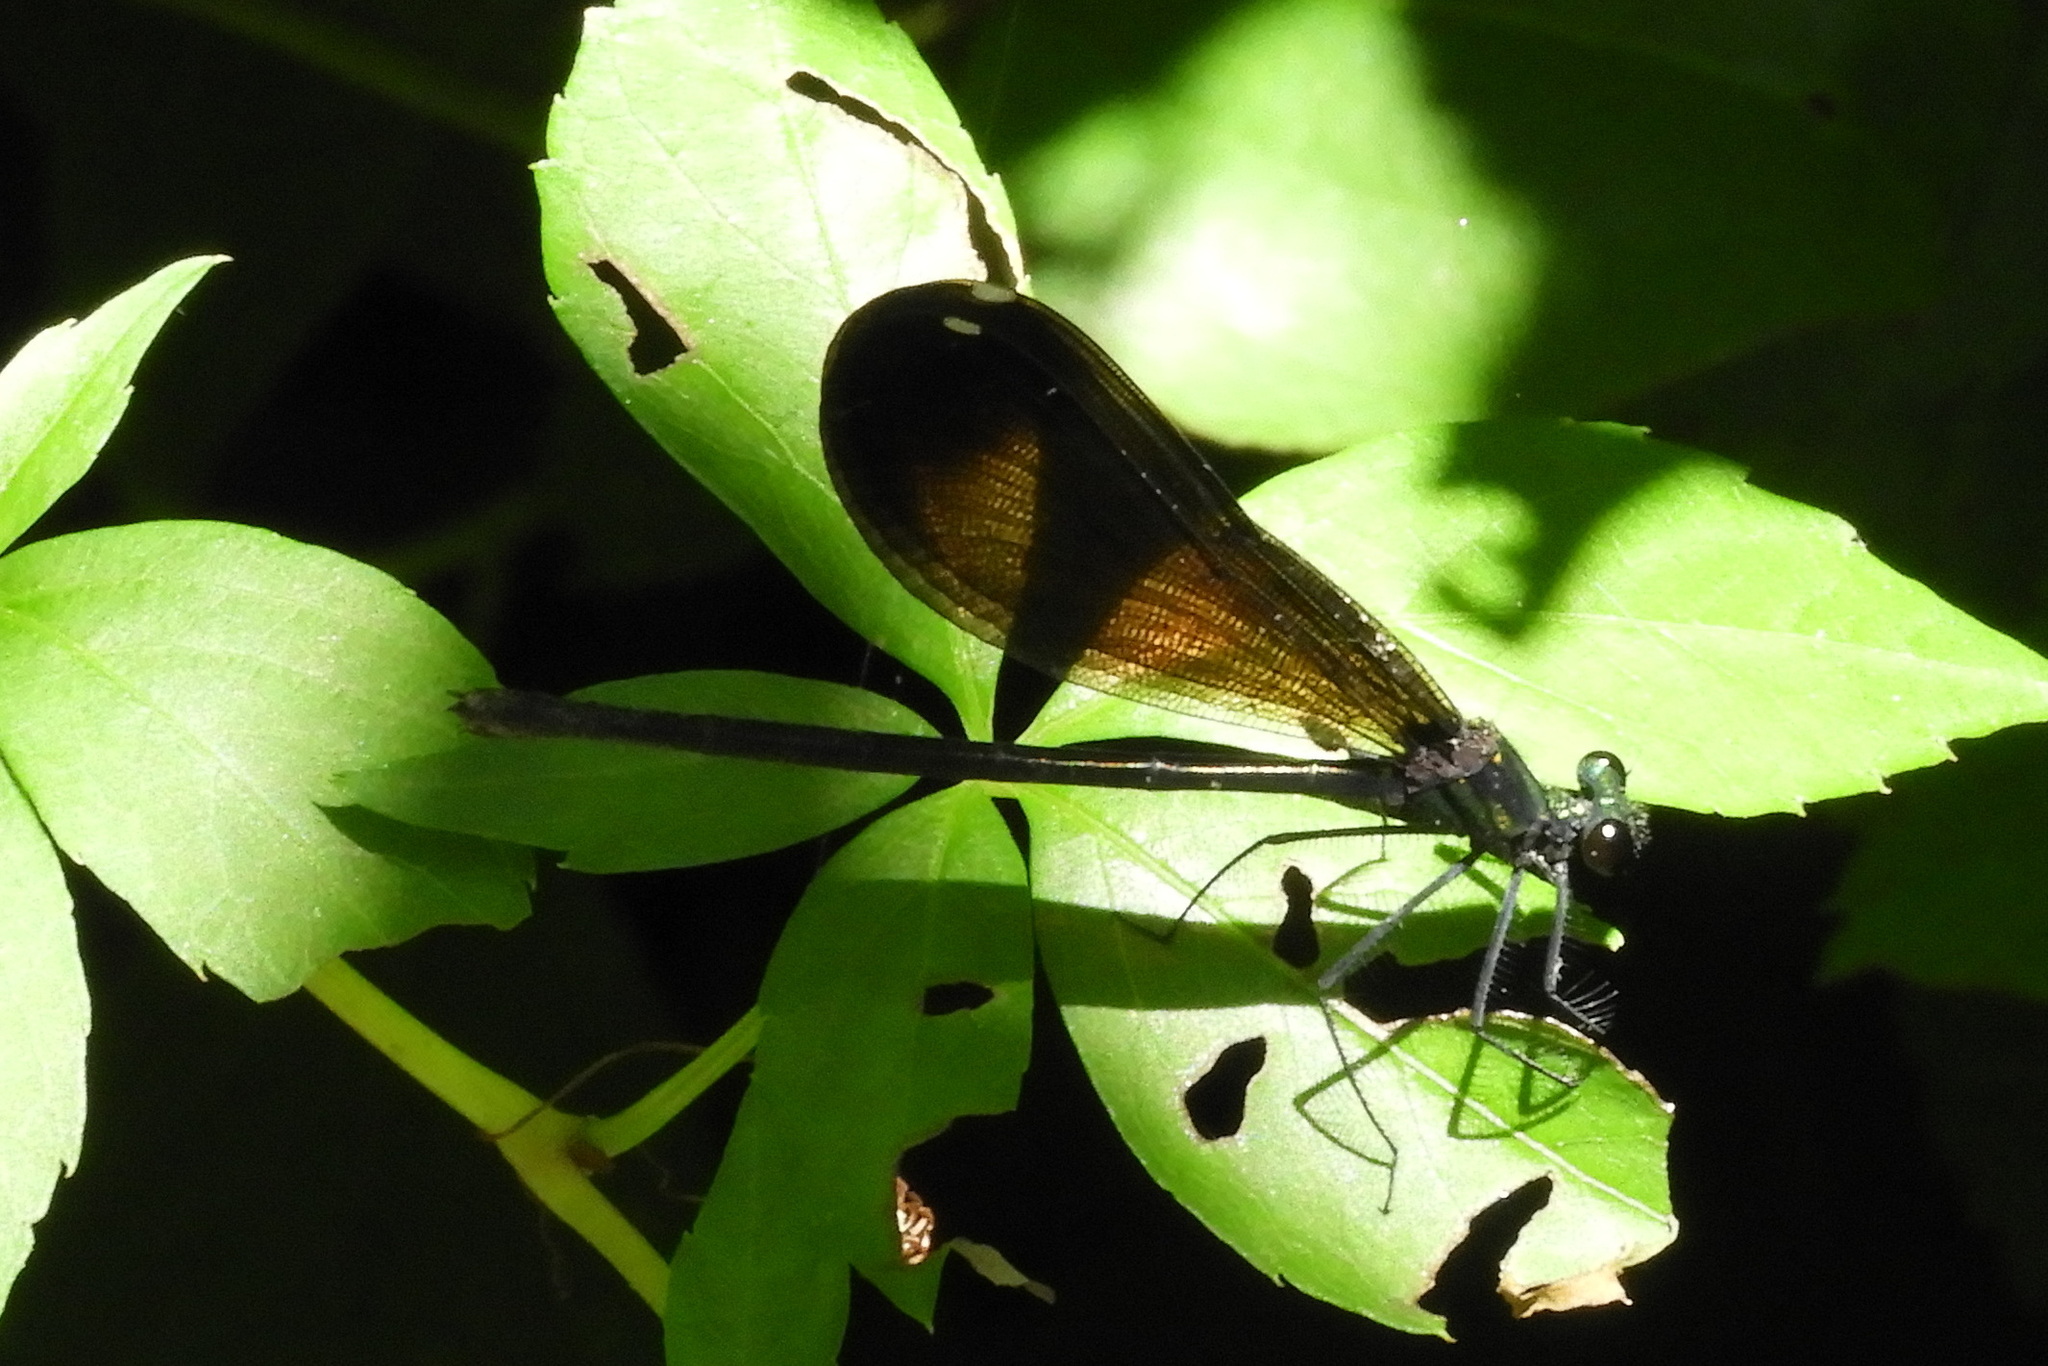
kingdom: Animalia
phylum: Arthropoda
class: Insecta
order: Odonata
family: Calopterygidae
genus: Calopteryx
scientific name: Calopteryx maculata
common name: Ebony jewelwing
